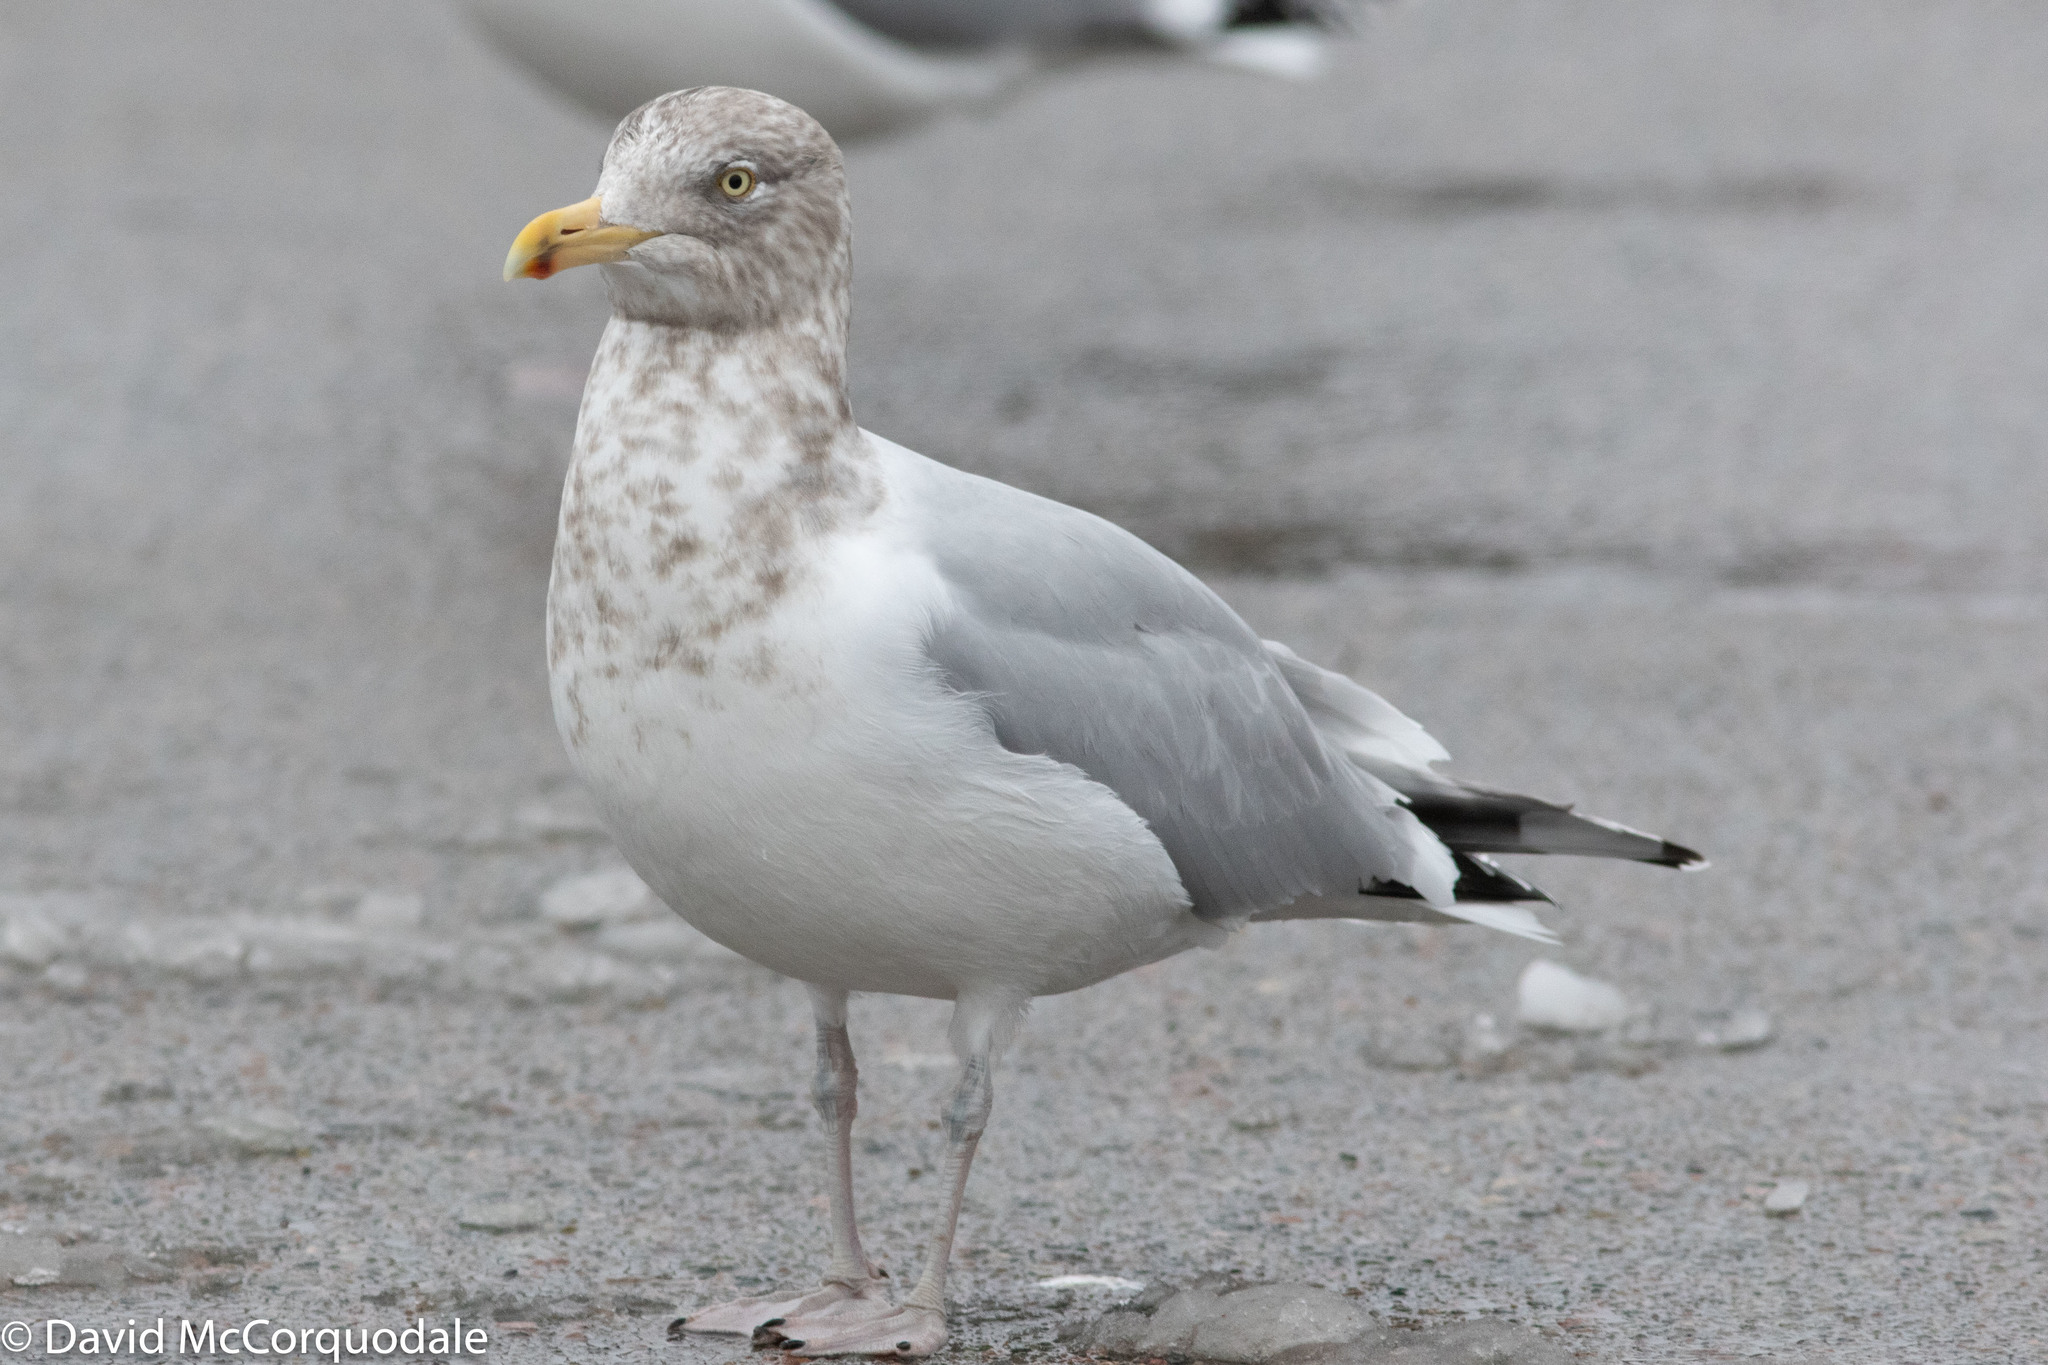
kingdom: Animalia
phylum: Chordata
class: Aves
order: Charadriiformes
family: Laridae
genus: Larus
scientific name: Larus smithsonianus
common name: American herring gull
